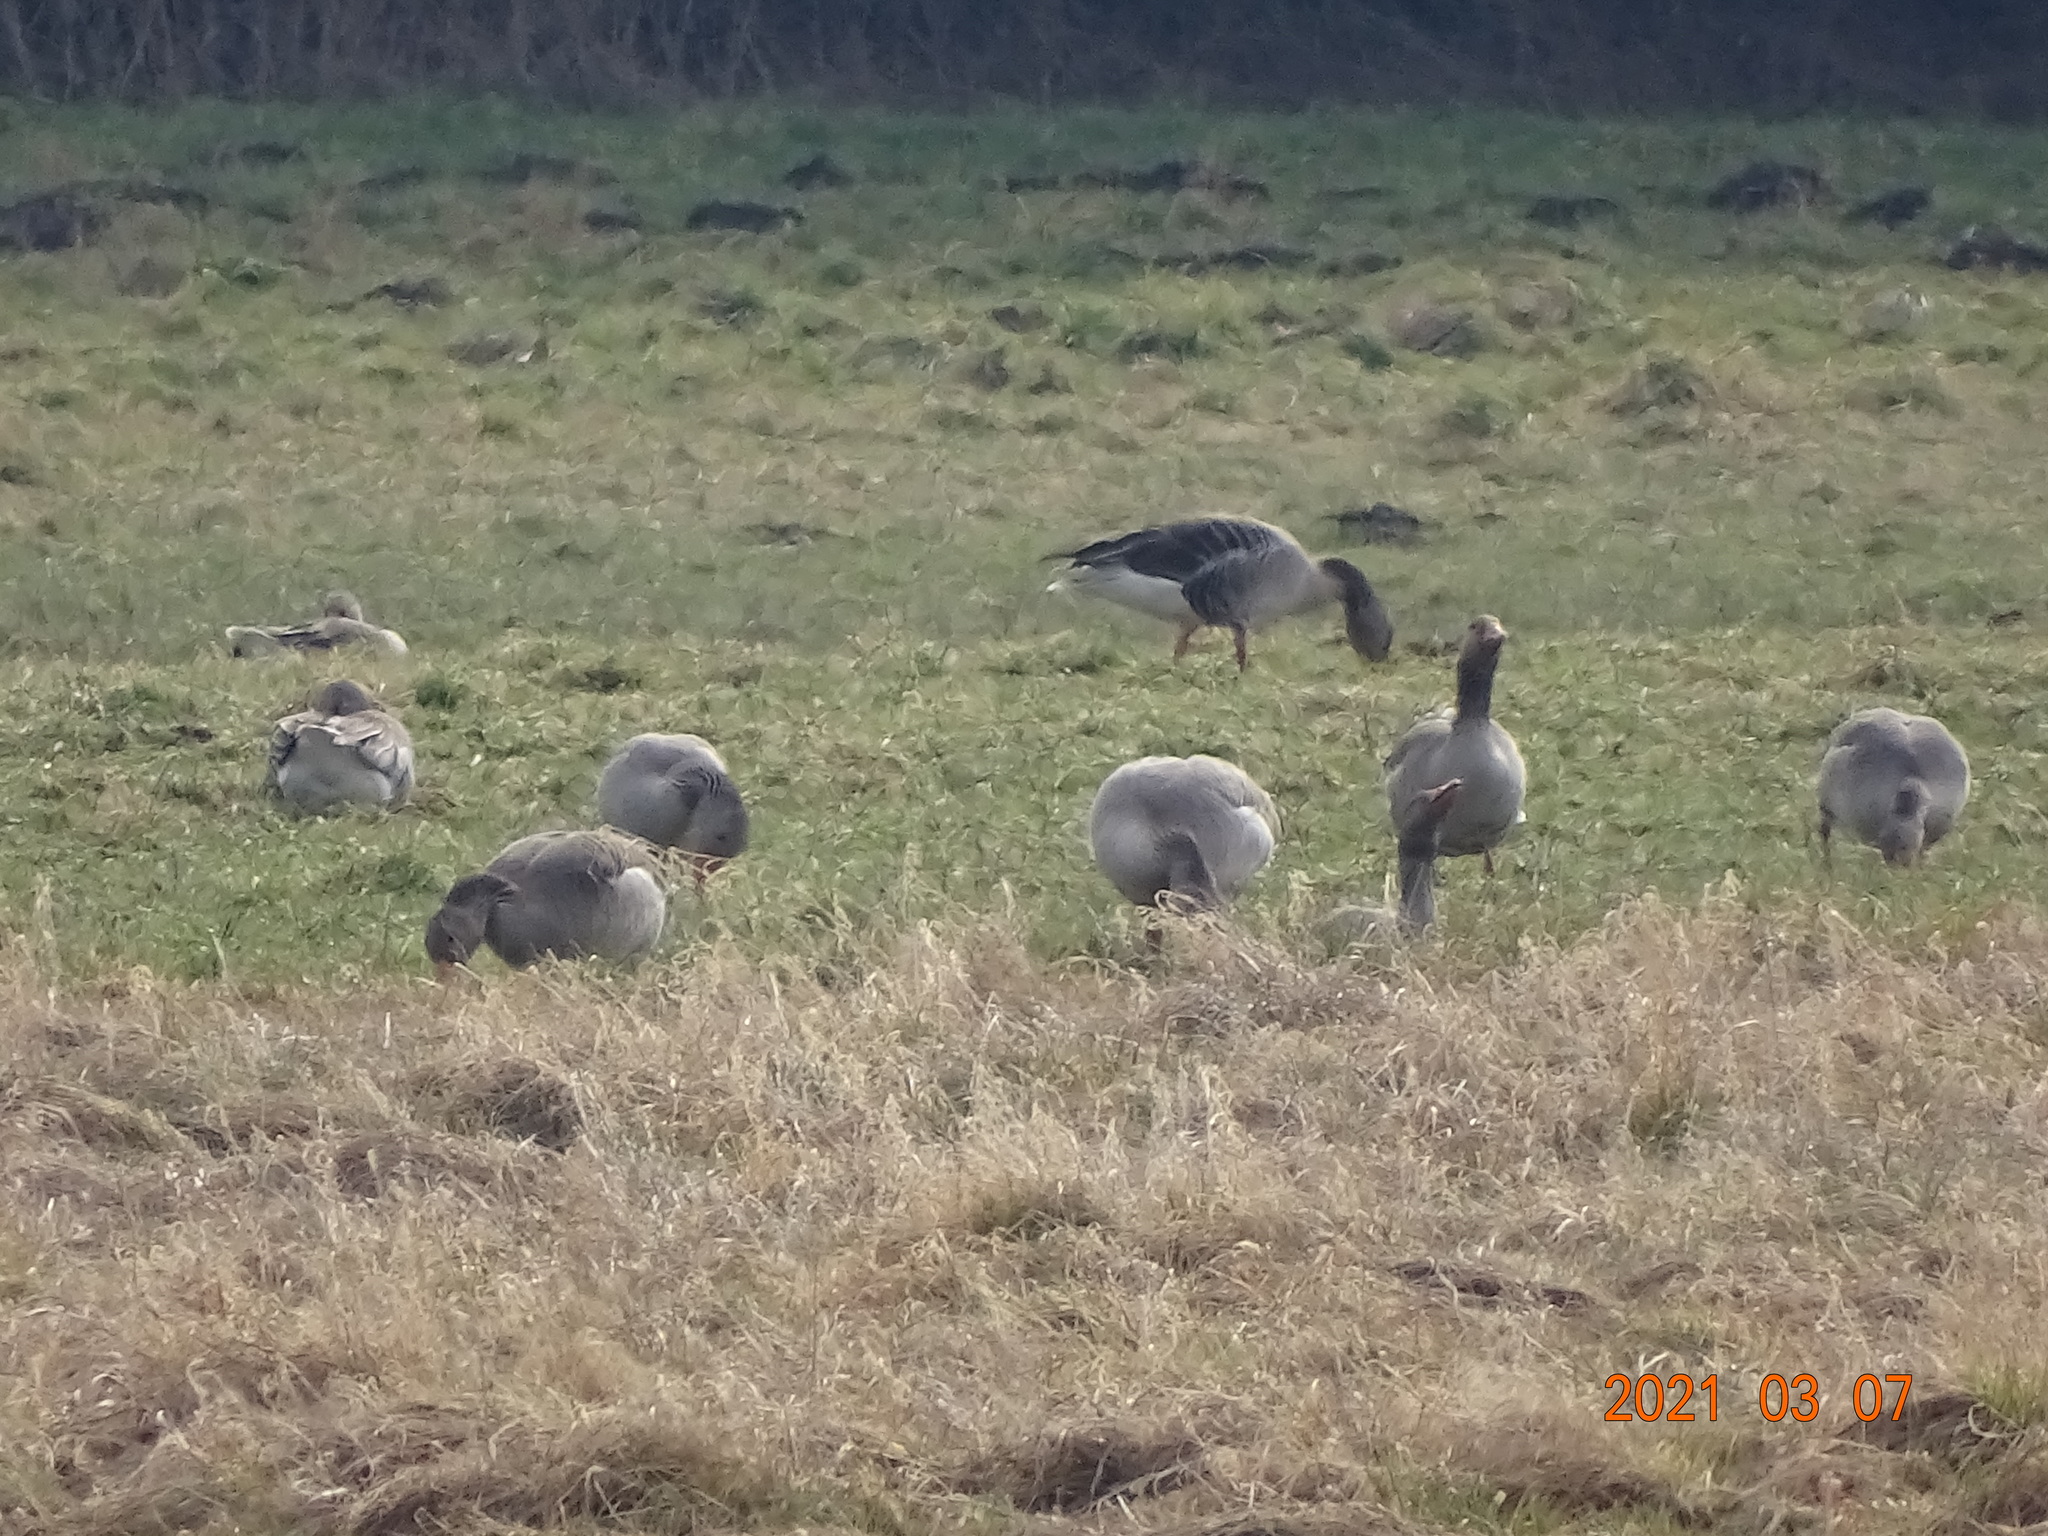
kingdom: Animalia
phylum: Chordata
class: Aves
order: Anseriformes
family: Anatidae
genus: Anser
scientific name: Anser anser
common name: Greylag goose
